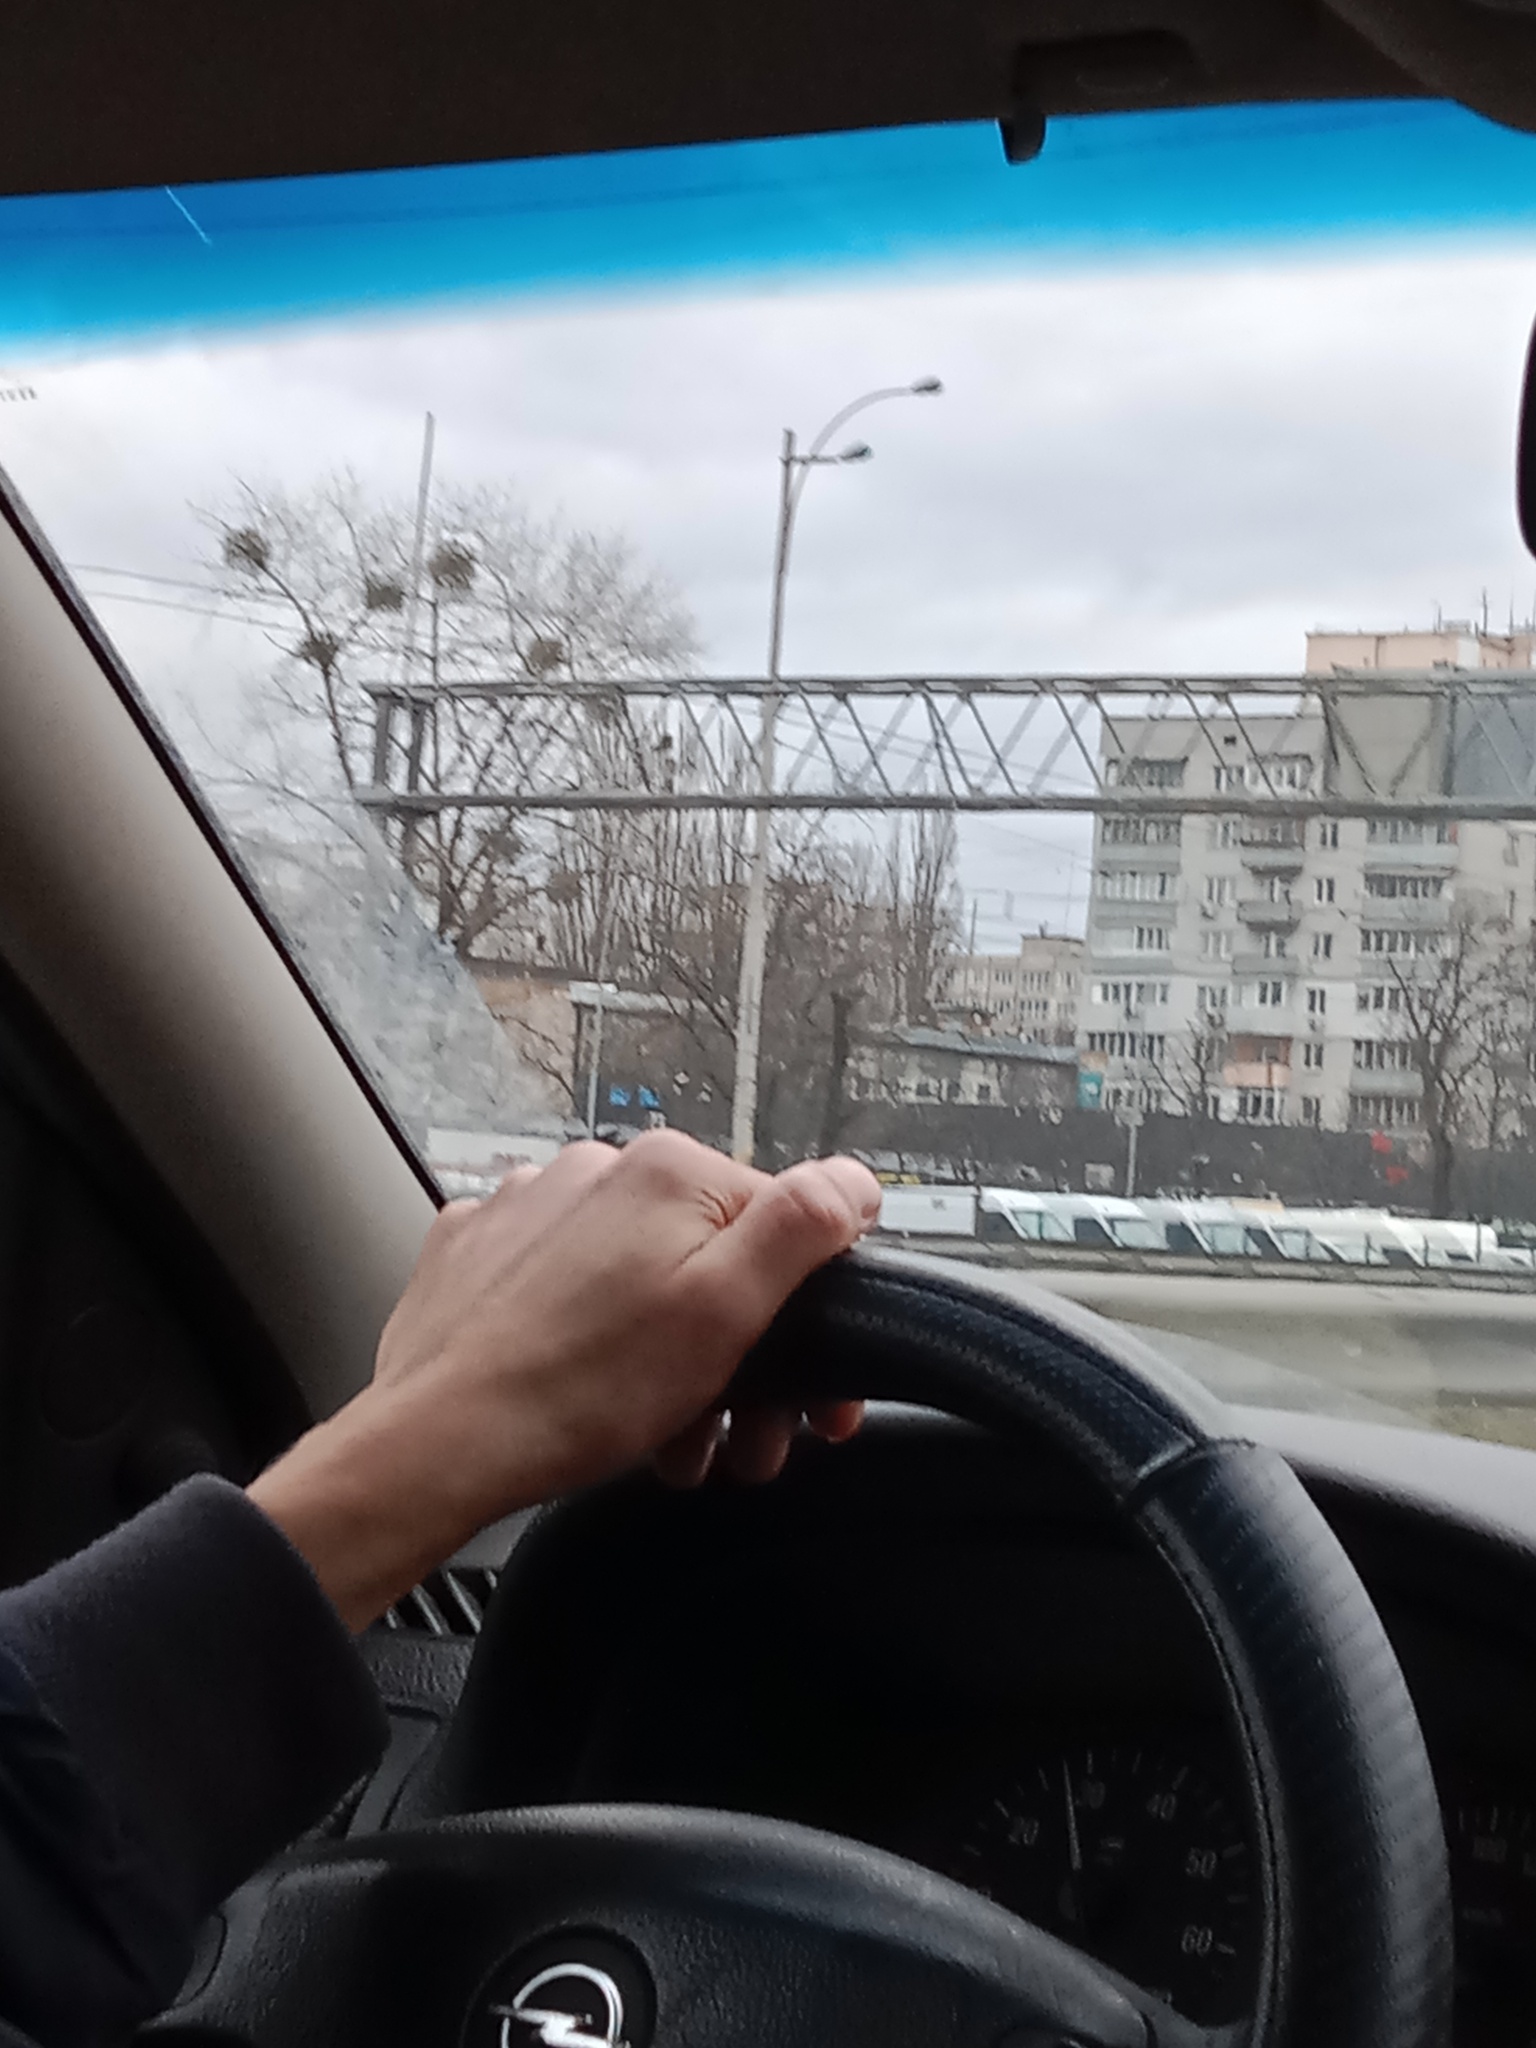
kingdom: Plantae
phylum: Tracheophyta
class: Magnoliopsida
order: Santalales
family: Viscaceae
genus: Viscum
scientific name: Viscum album
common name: Mistletoe
